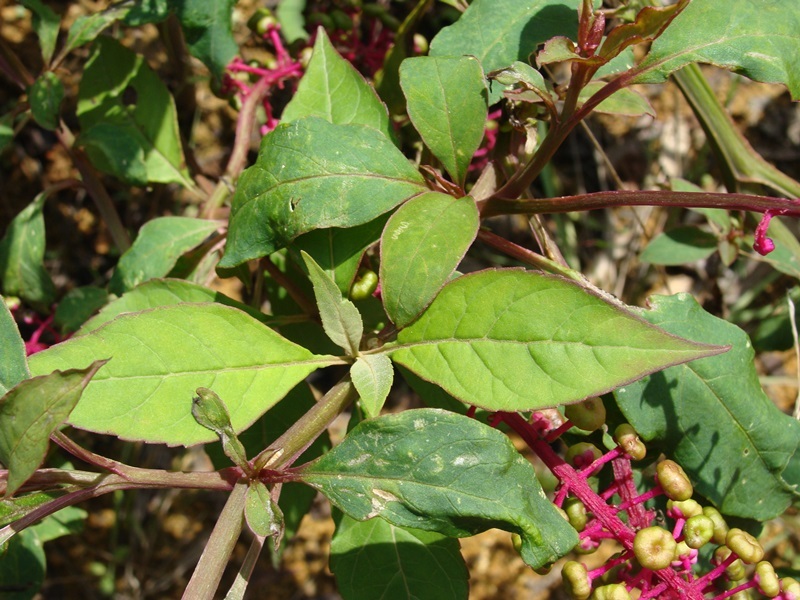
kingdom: Plantae
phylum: Tracheophyta
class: Magnoliopsida
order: Caryophyllales
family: Phytolaccaceae
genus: Phytolacca
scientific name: Phytolacca rivinoides
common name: Venezuelan pokeweed
